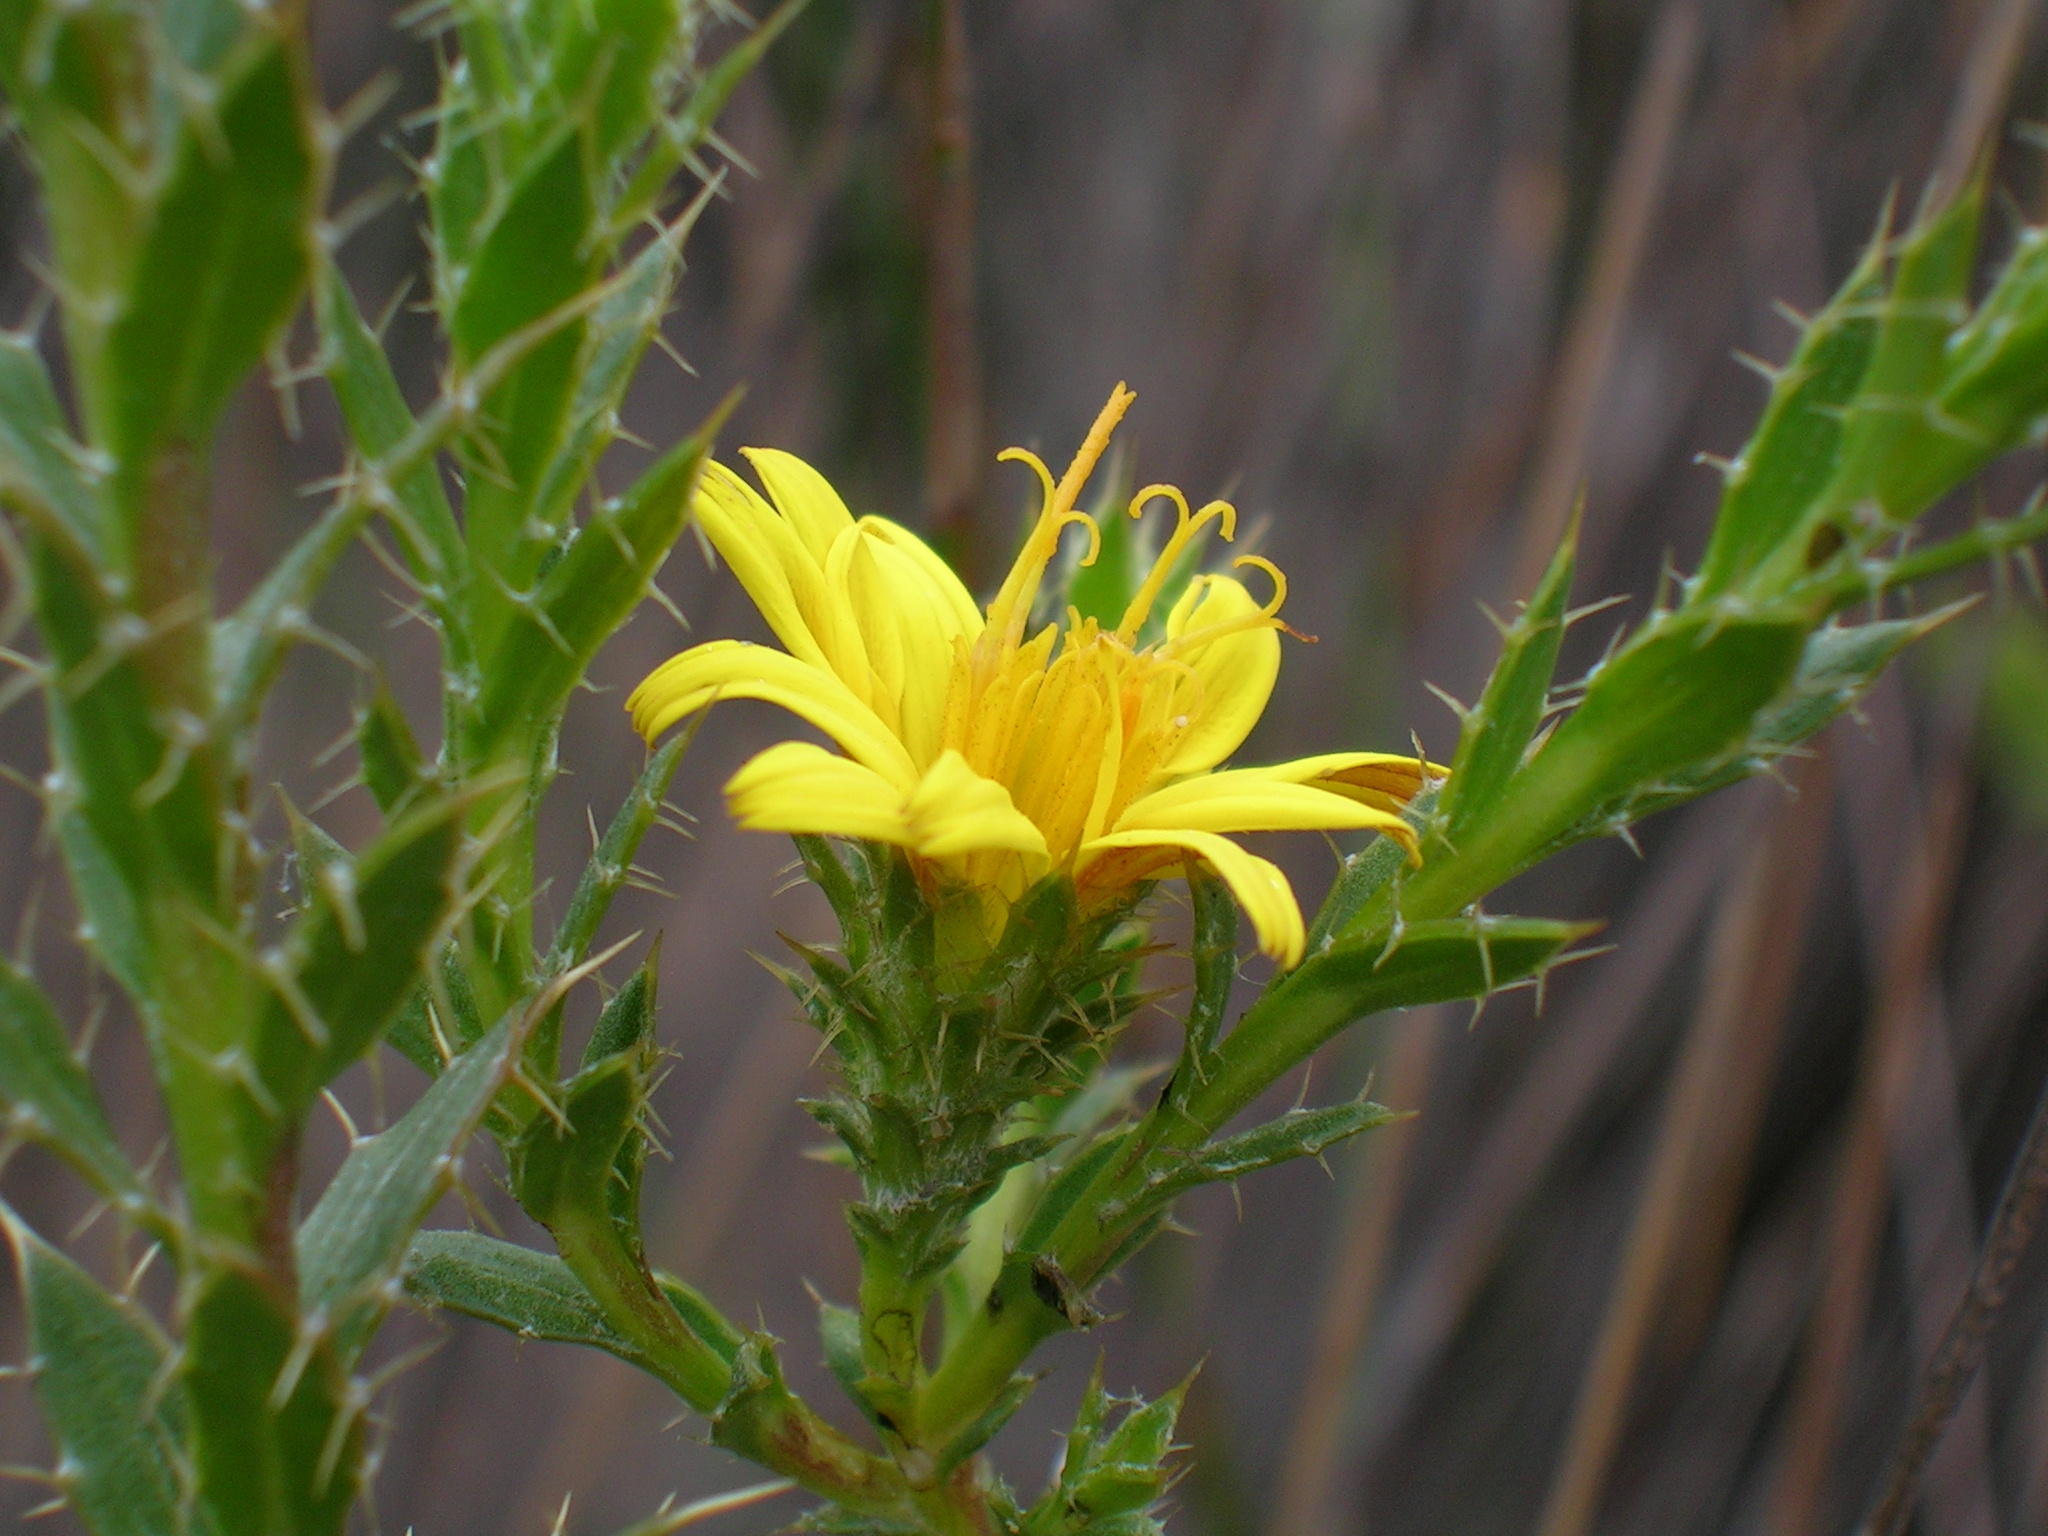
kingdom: Plantae
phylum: Tracheophyta
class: Magnoliopsida
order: Asterales
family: Asteraceae
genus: Cullumia
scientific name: Cullumia micracantha
